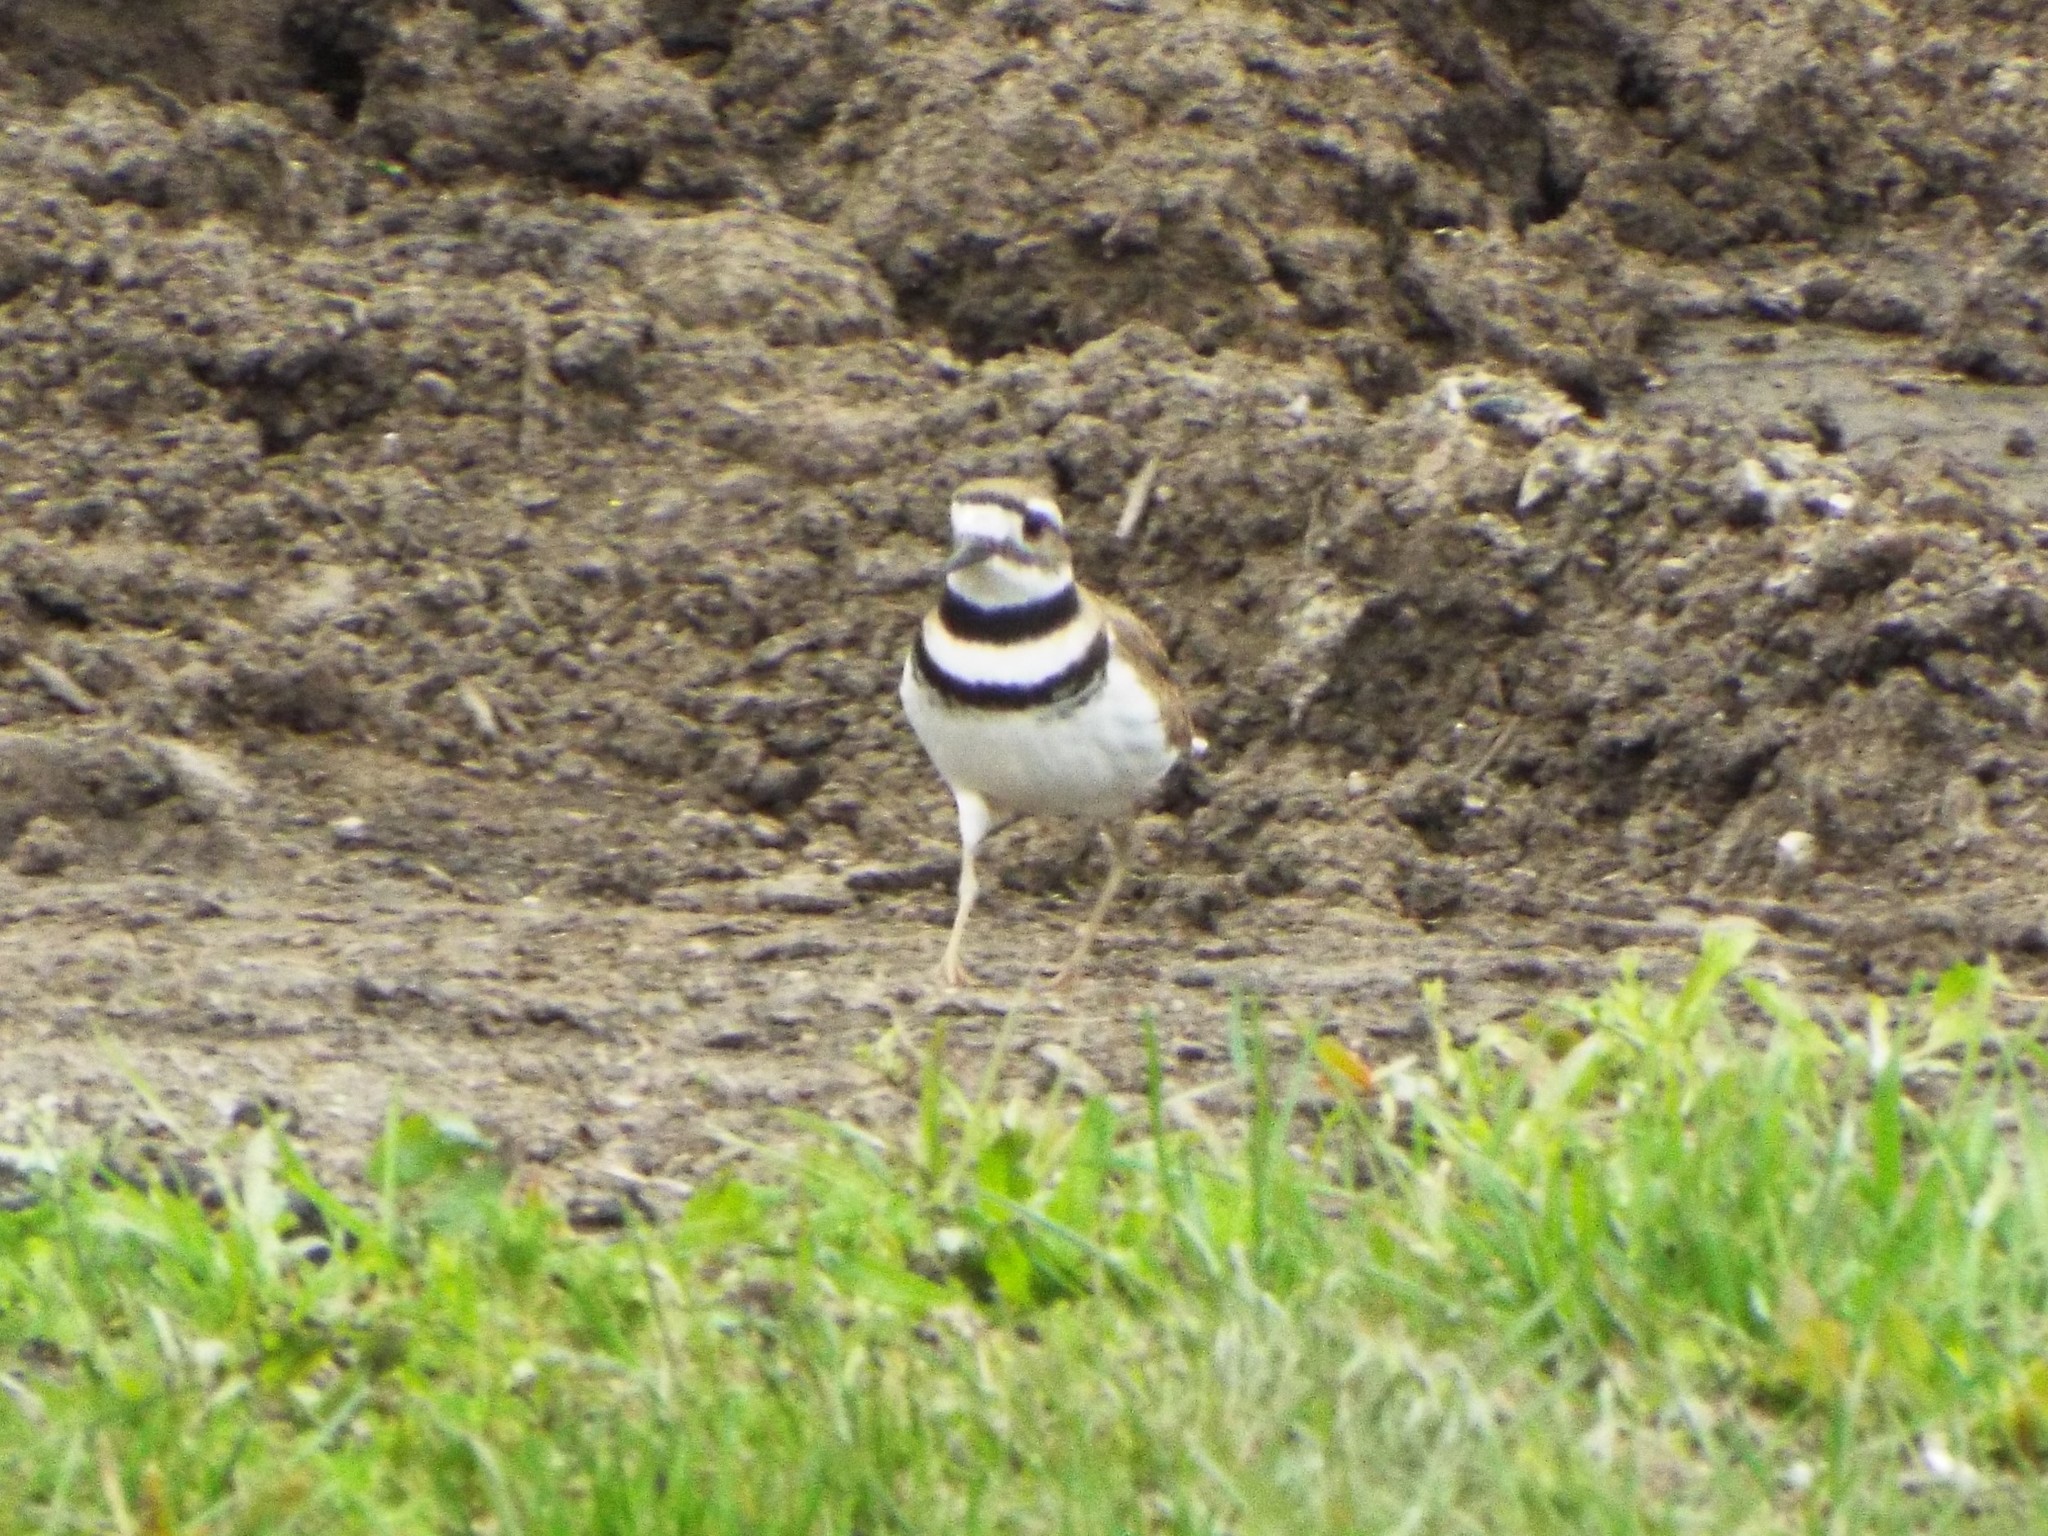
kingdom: Animalia
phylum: Chordata
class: Aves
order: Charadriiformes
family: Charadriidae
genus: Charadrius
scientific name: Charadrius vociferus
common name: Killdeer
